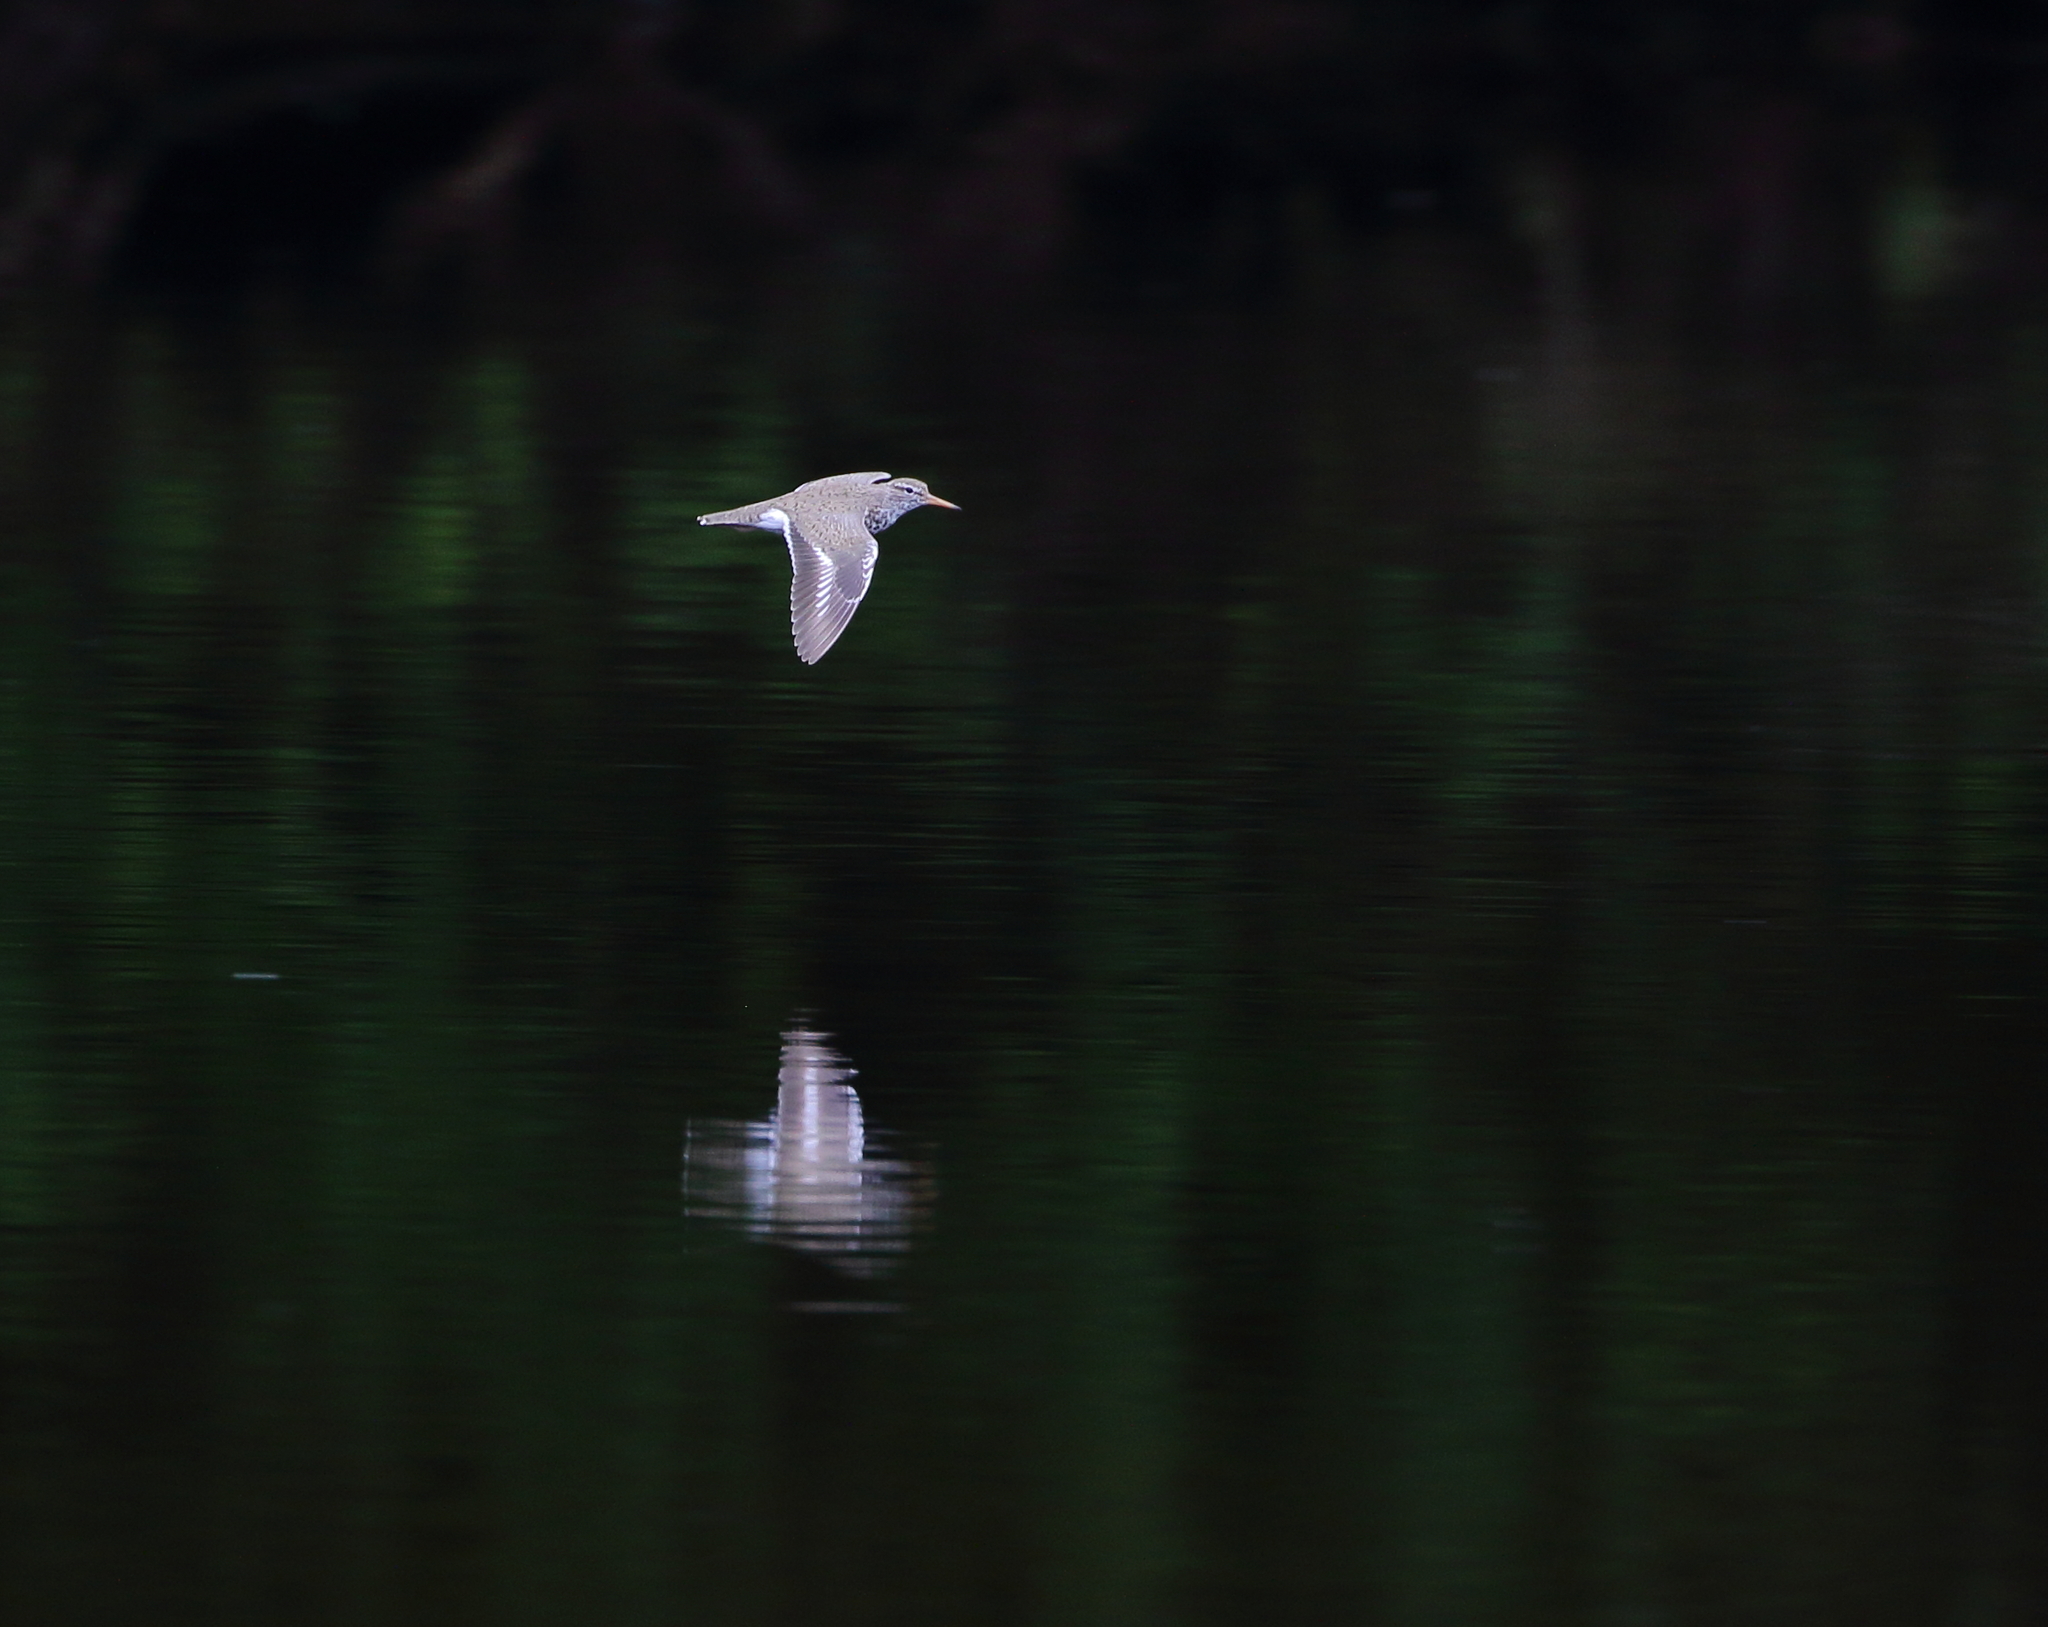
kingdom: Animalia
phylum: Chordata
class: Aves
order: Charadriiformes
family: Scolopacidae
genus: Actitis
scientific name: Actitis macularius
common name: Spotted sandpiper
